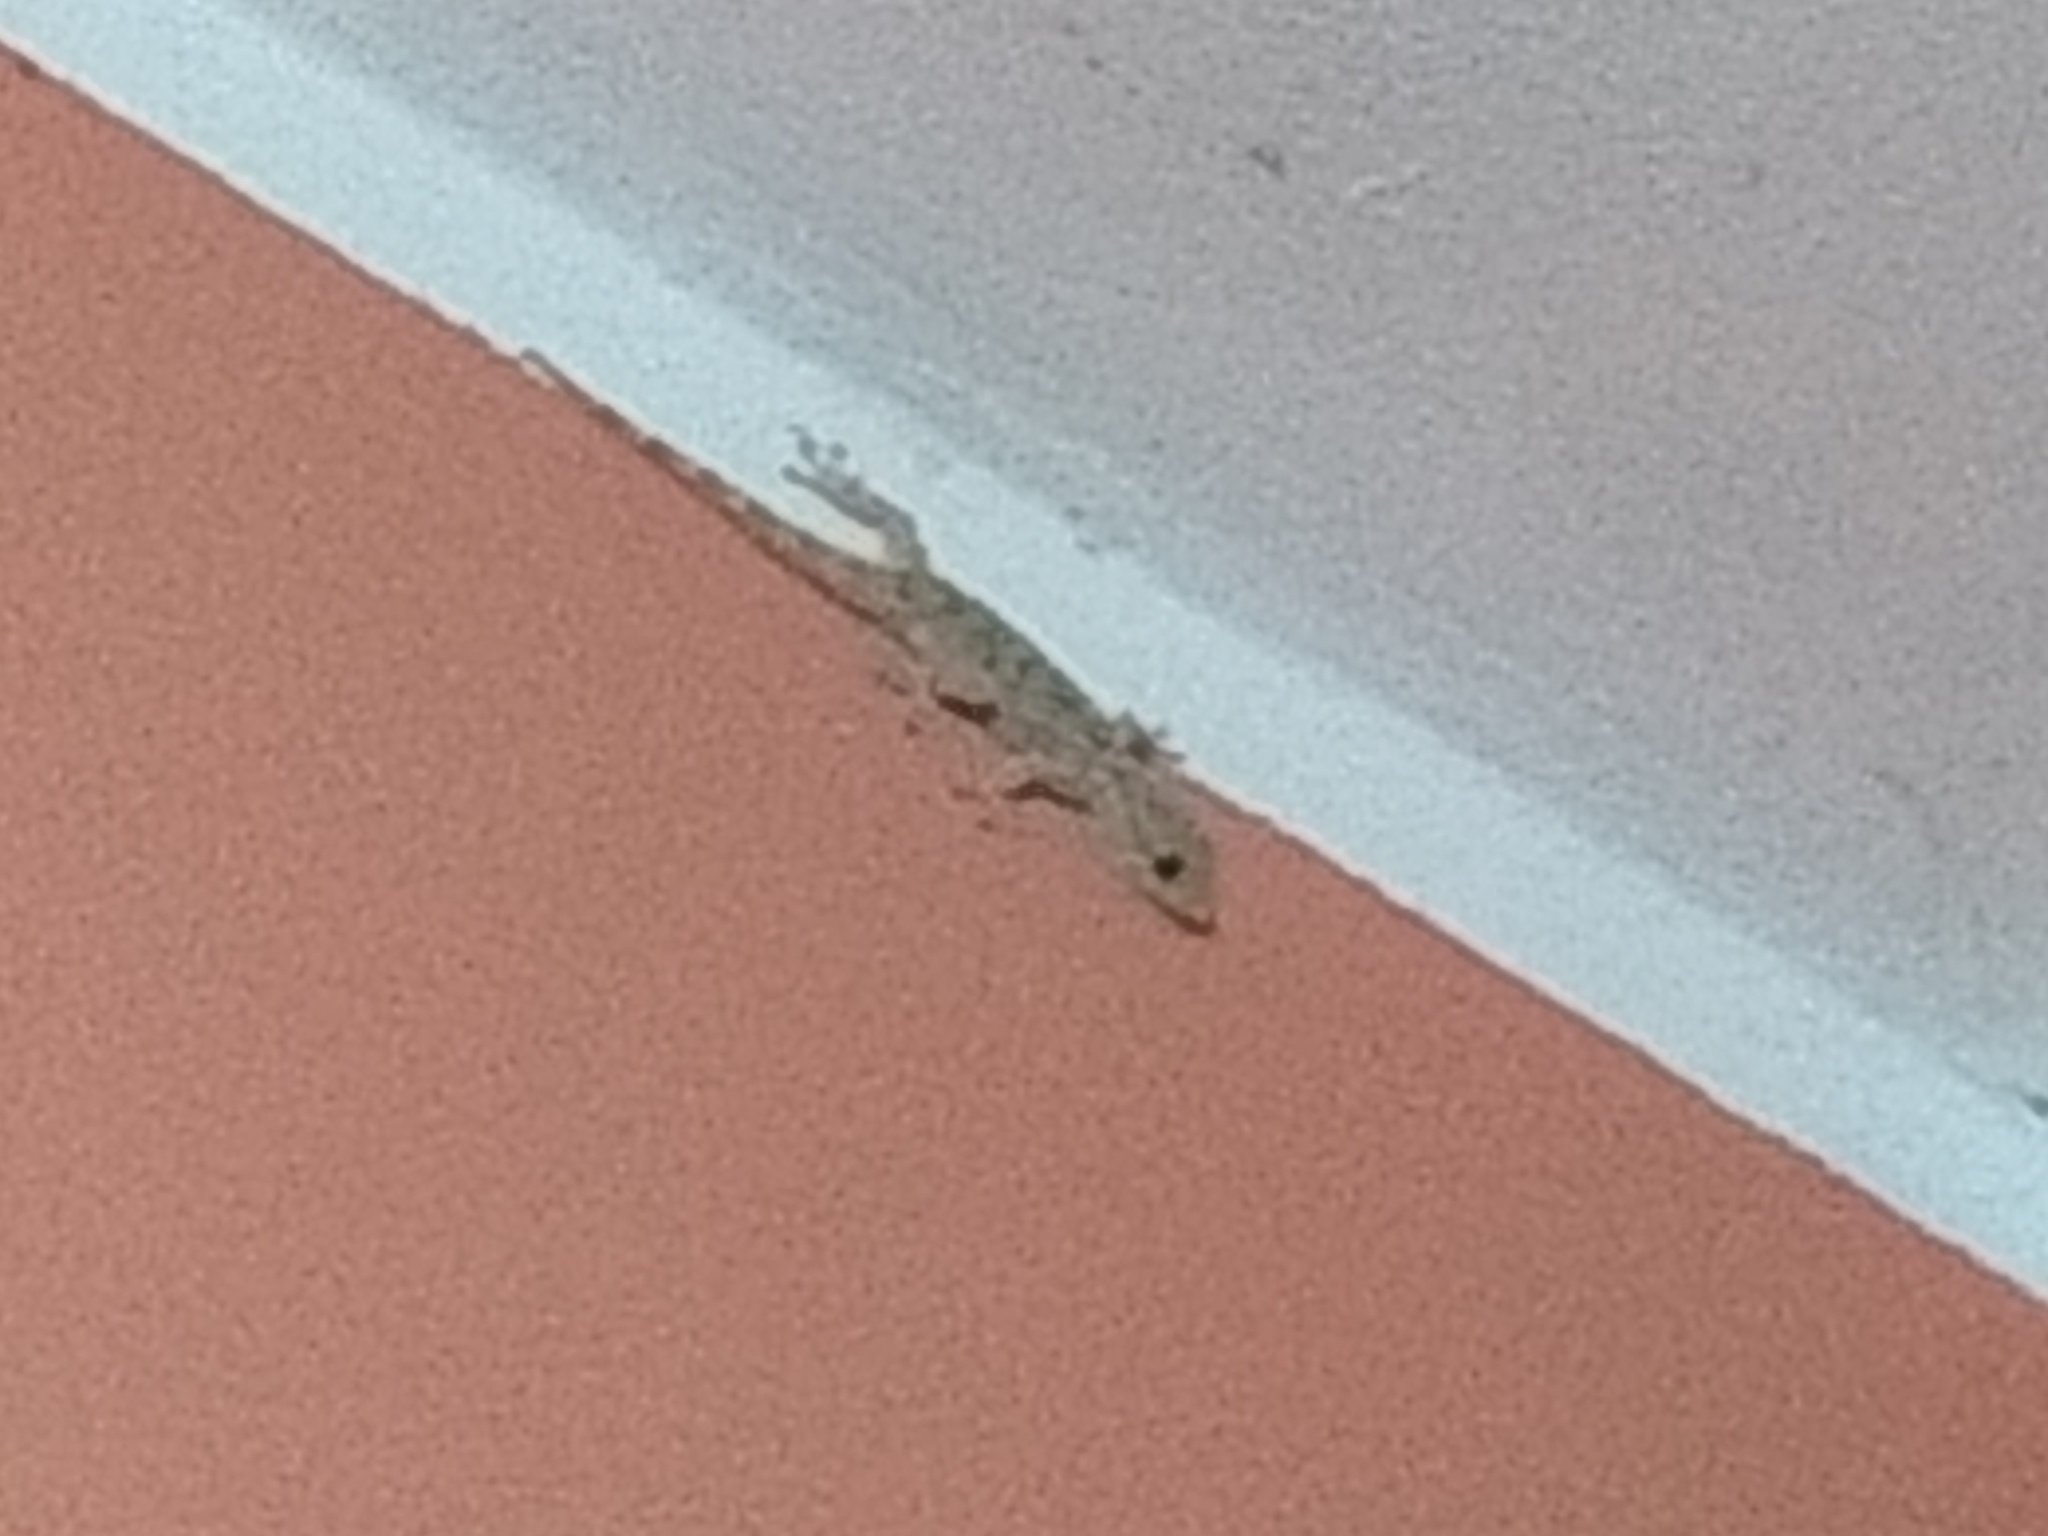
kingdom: Animalia
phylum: Chordata
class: Squamata
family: Phyllodactylidae
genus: Tarentola
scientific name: Tarentola mauritanica
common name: Moorish gecko
